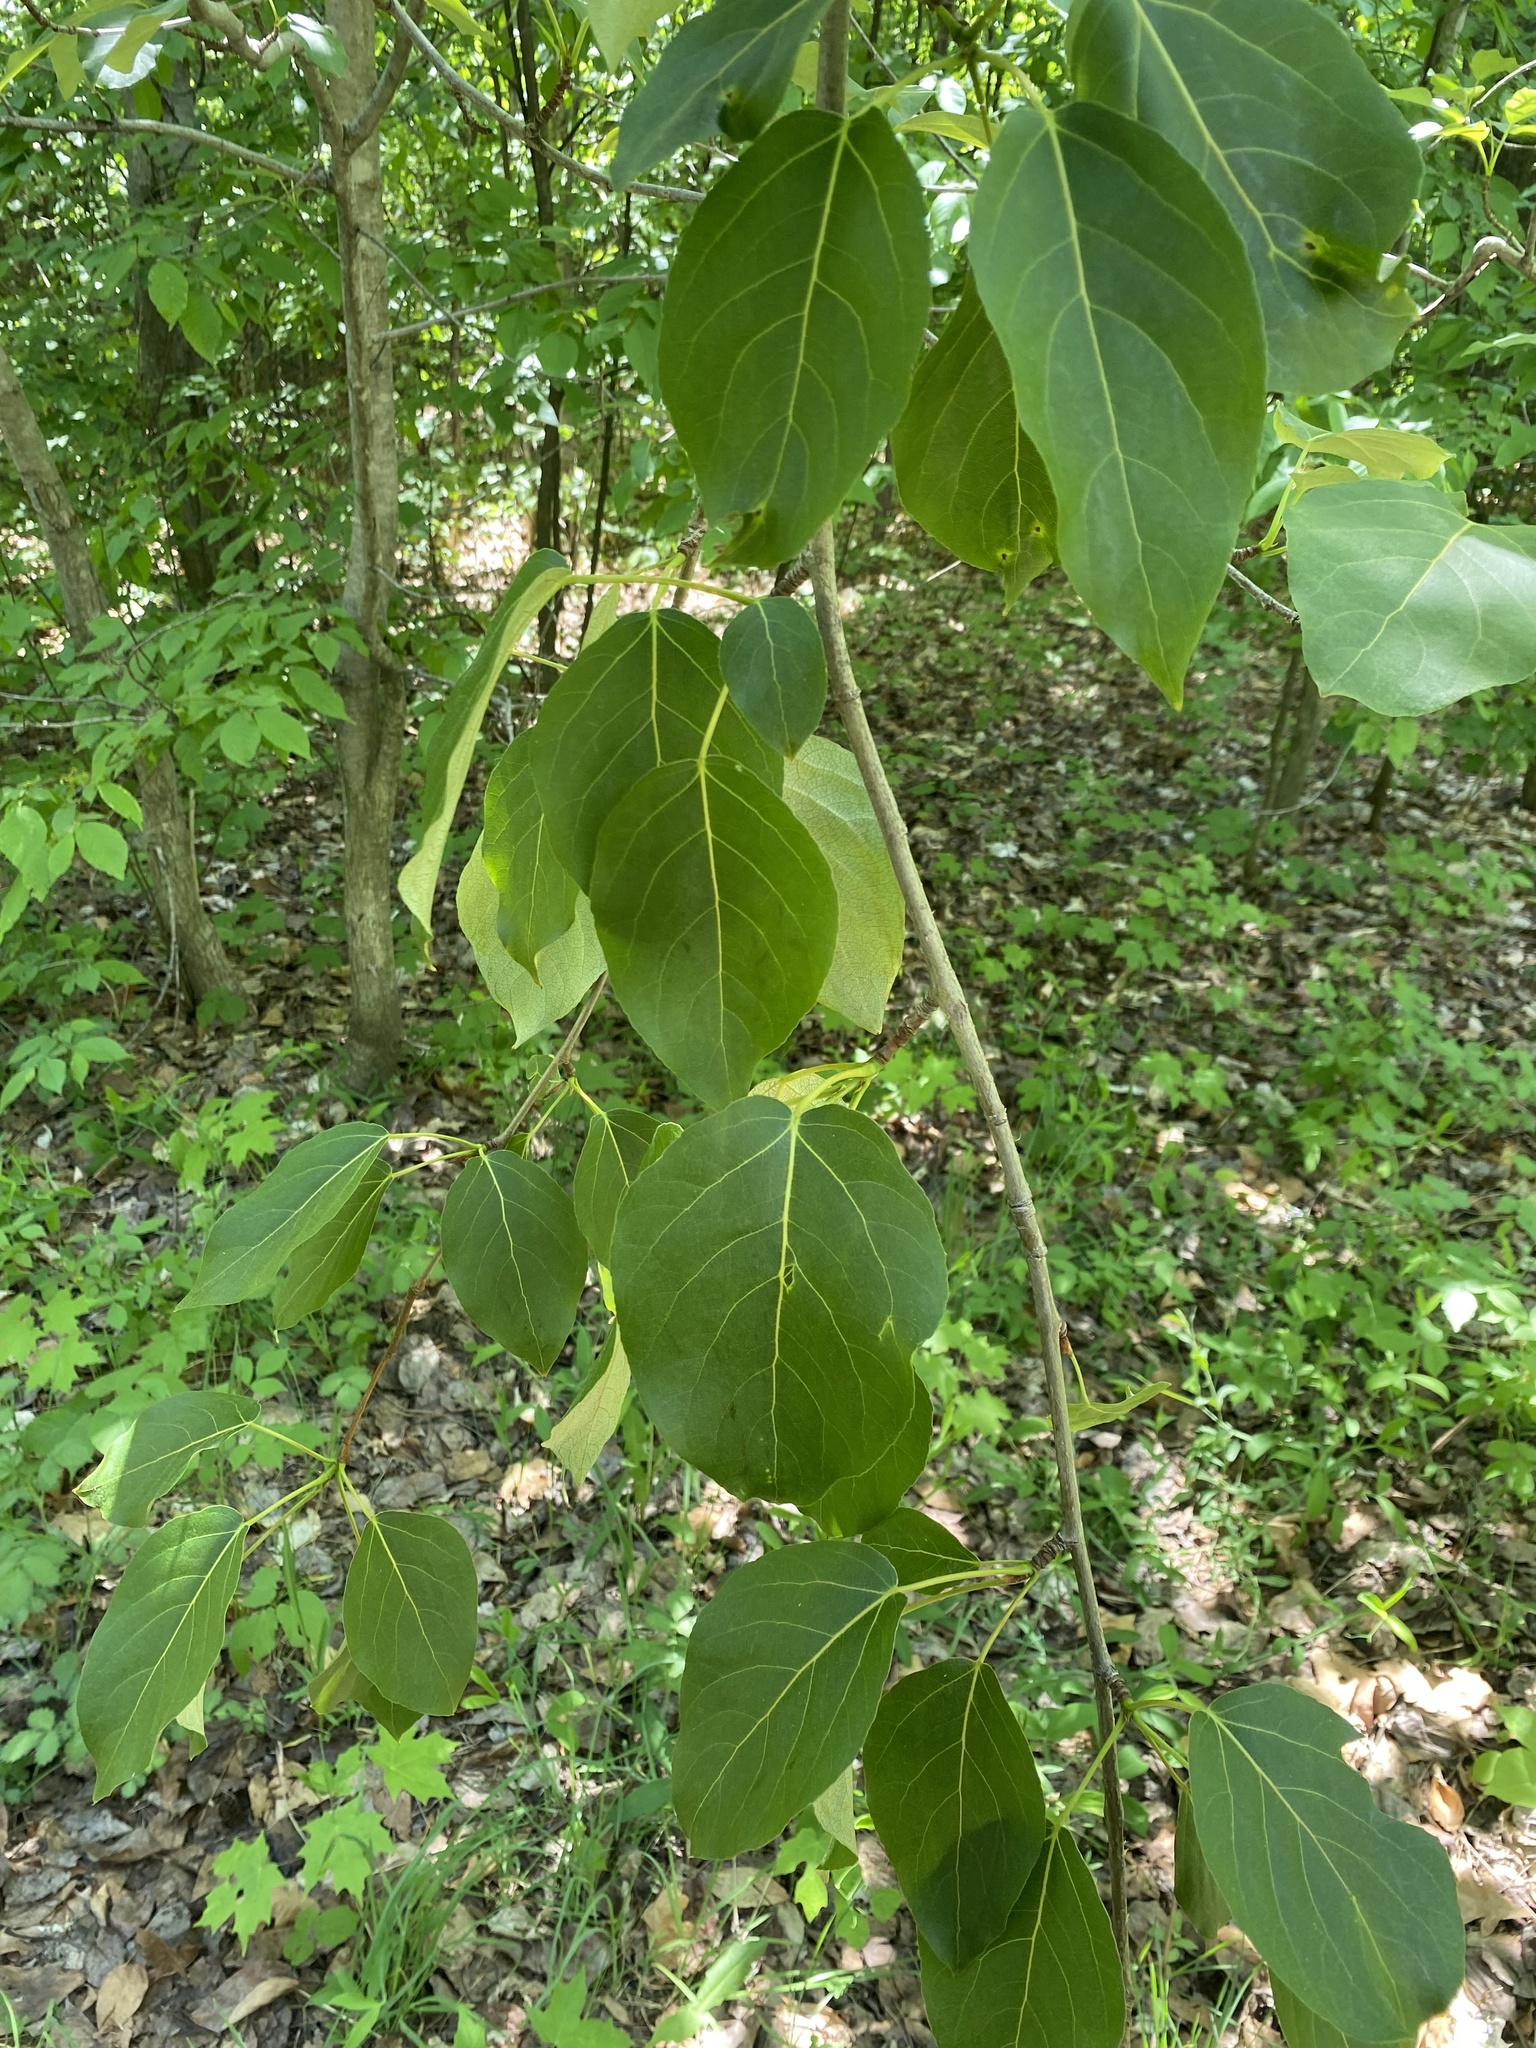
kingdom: Plantae
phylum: Tracheophyta
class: Magnoliopsida
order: Malpighiales
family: Salicaceae
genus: Populus
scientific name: Populus balsamifera
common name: Balsam poplar
